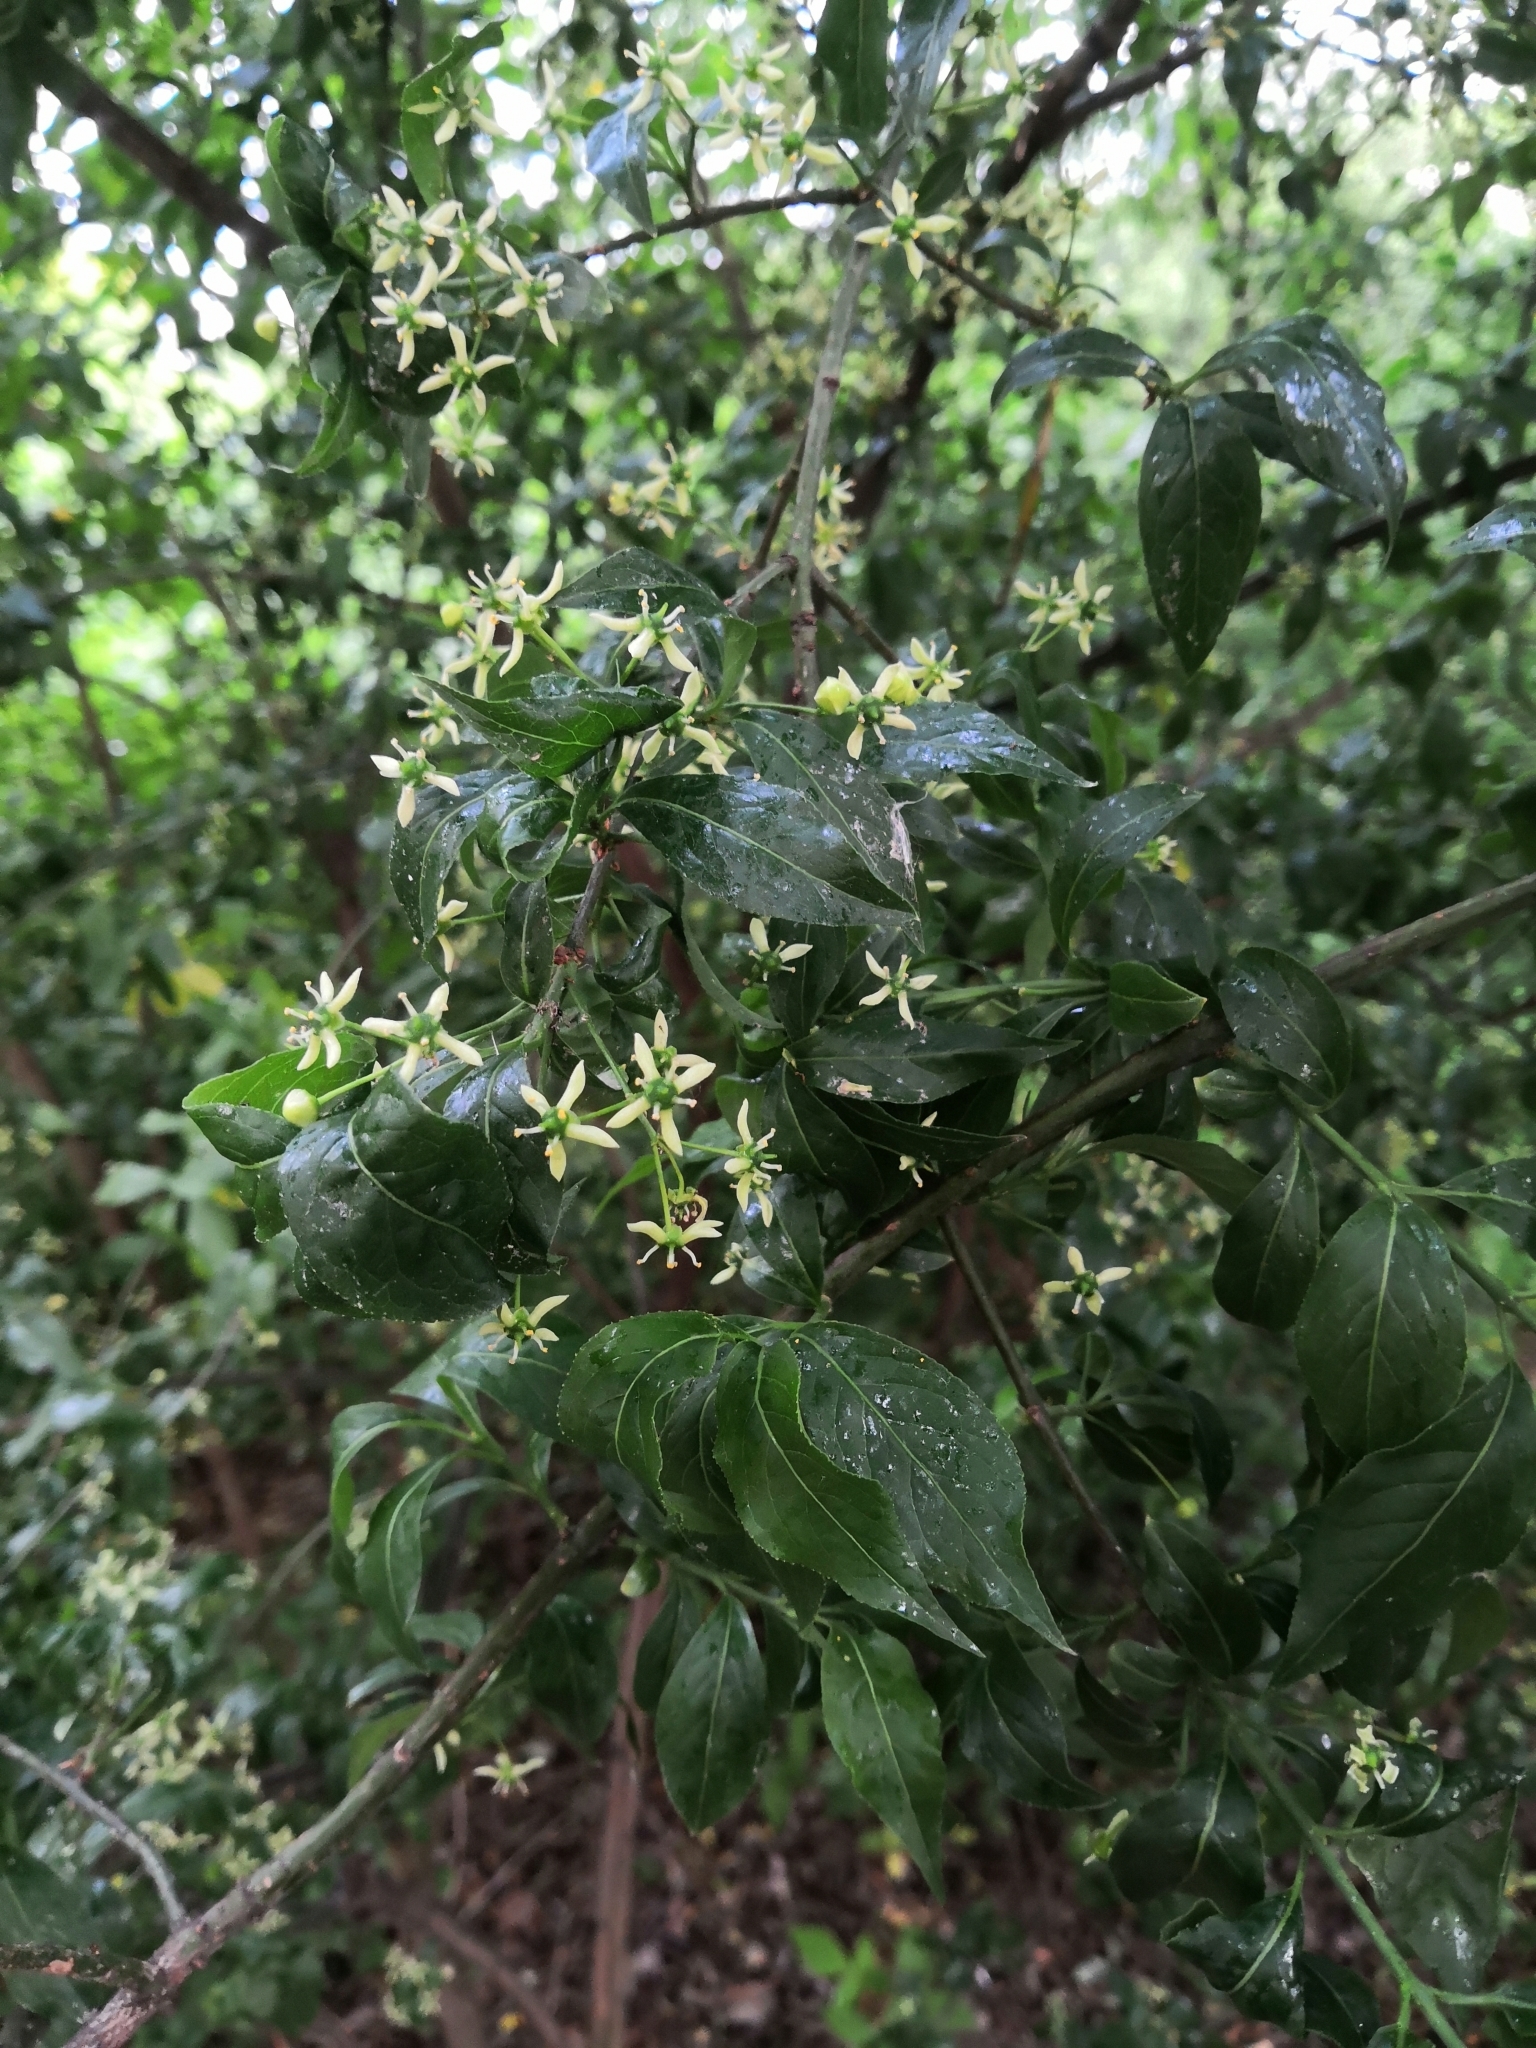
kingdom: Plantae
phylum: Tracheophyta
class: Magnoliopsida
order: Celastrales
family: Celastraceae
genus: Euonymus
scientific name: Euonymus europaeus
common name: Spindle
